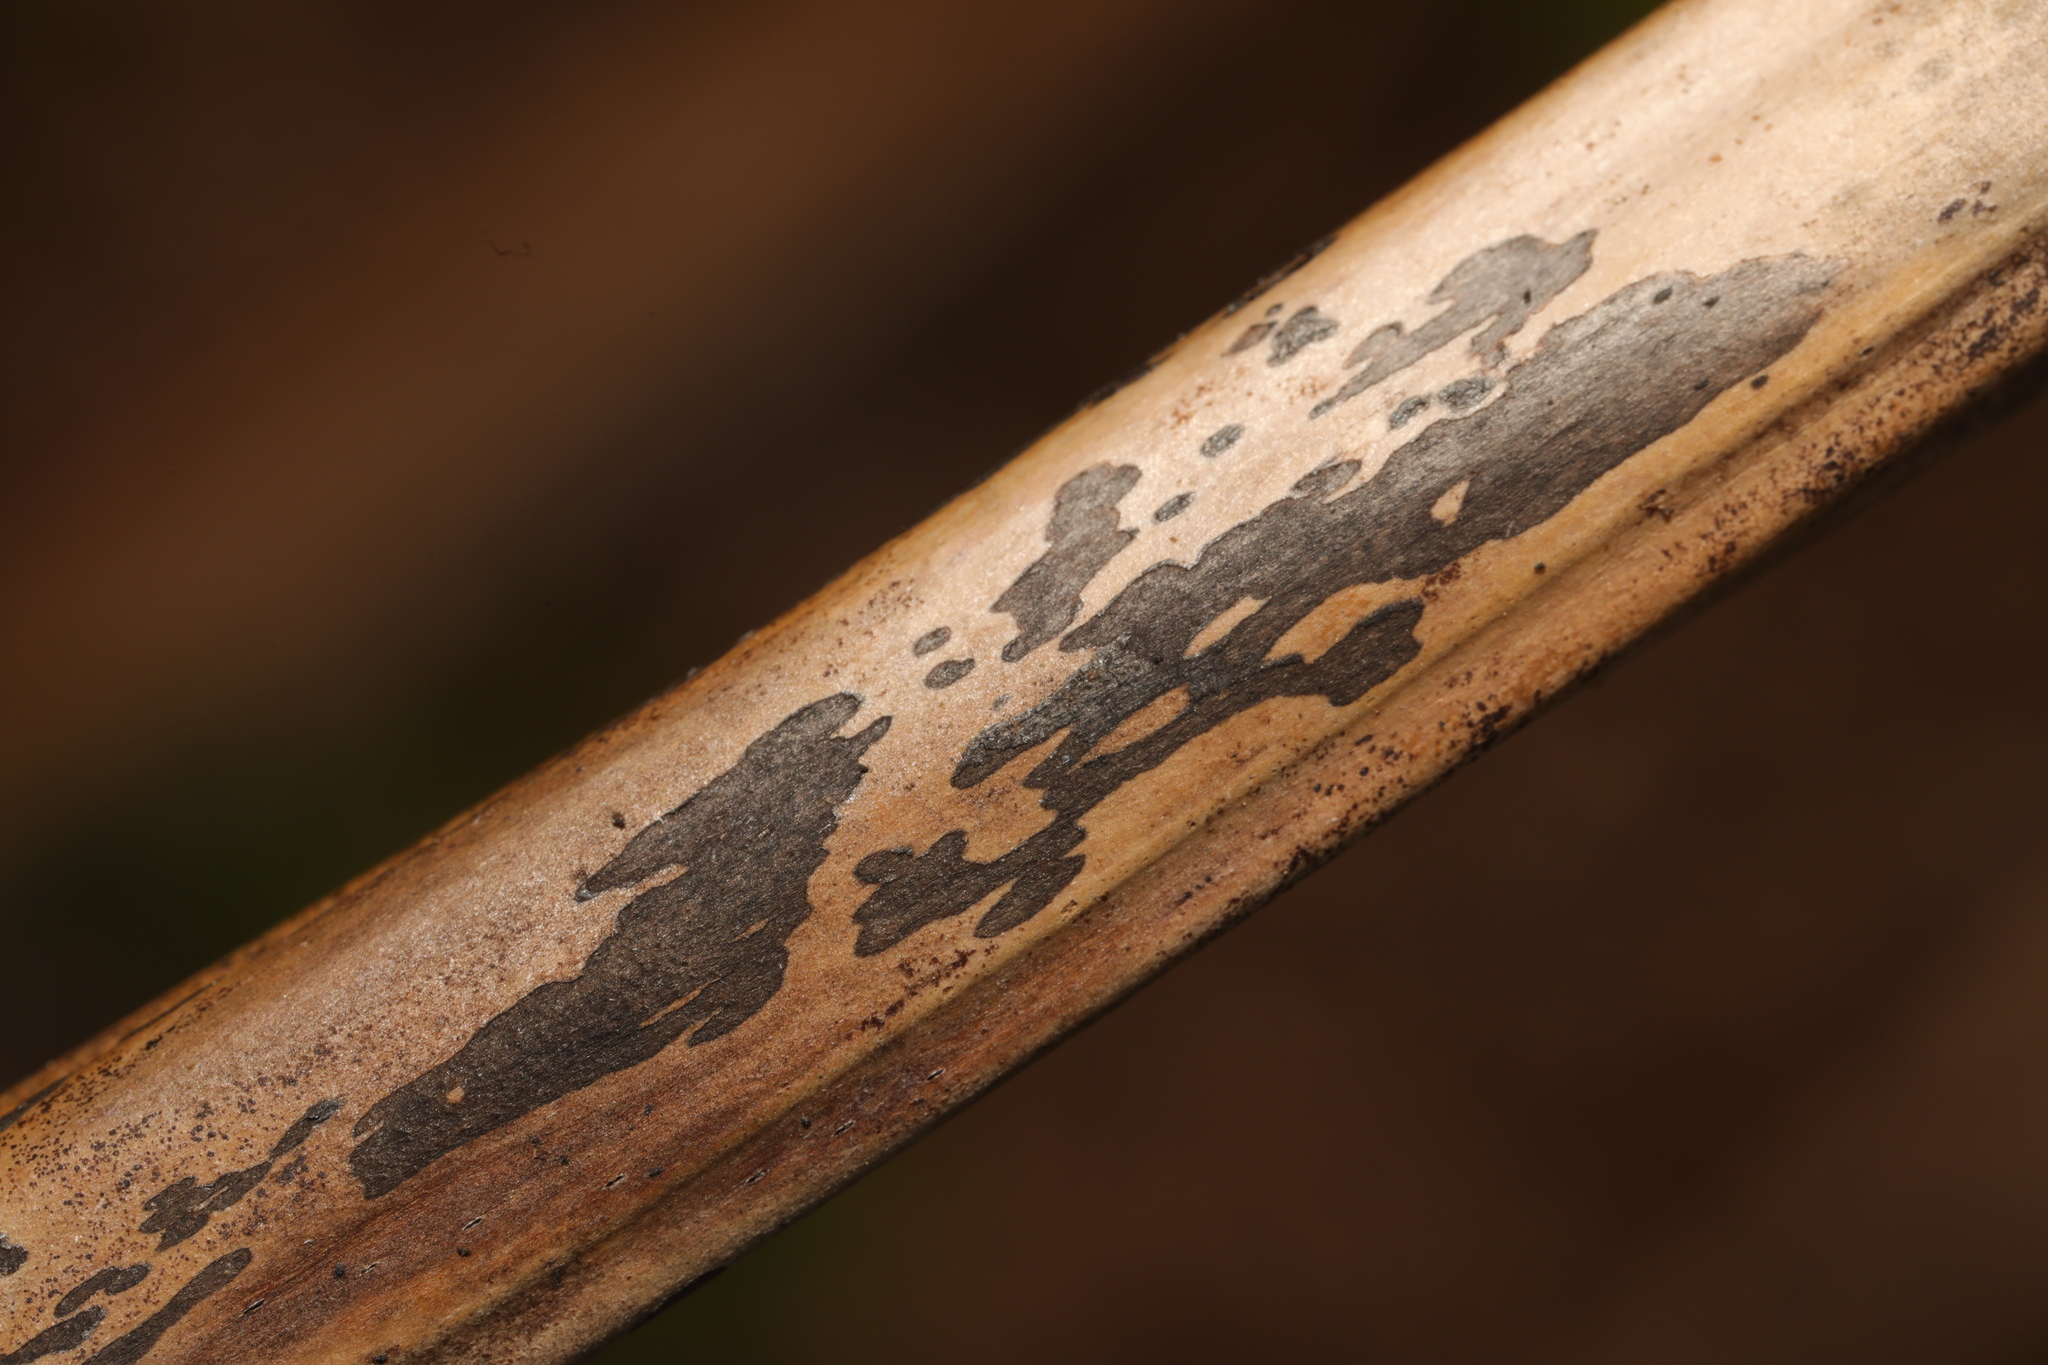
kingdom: Fungi
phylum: Ascomycota
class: Dothideomycetes
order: Pleosporales
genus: Rhopographus
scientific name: Rhopographus filicinus
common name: Bracken map
